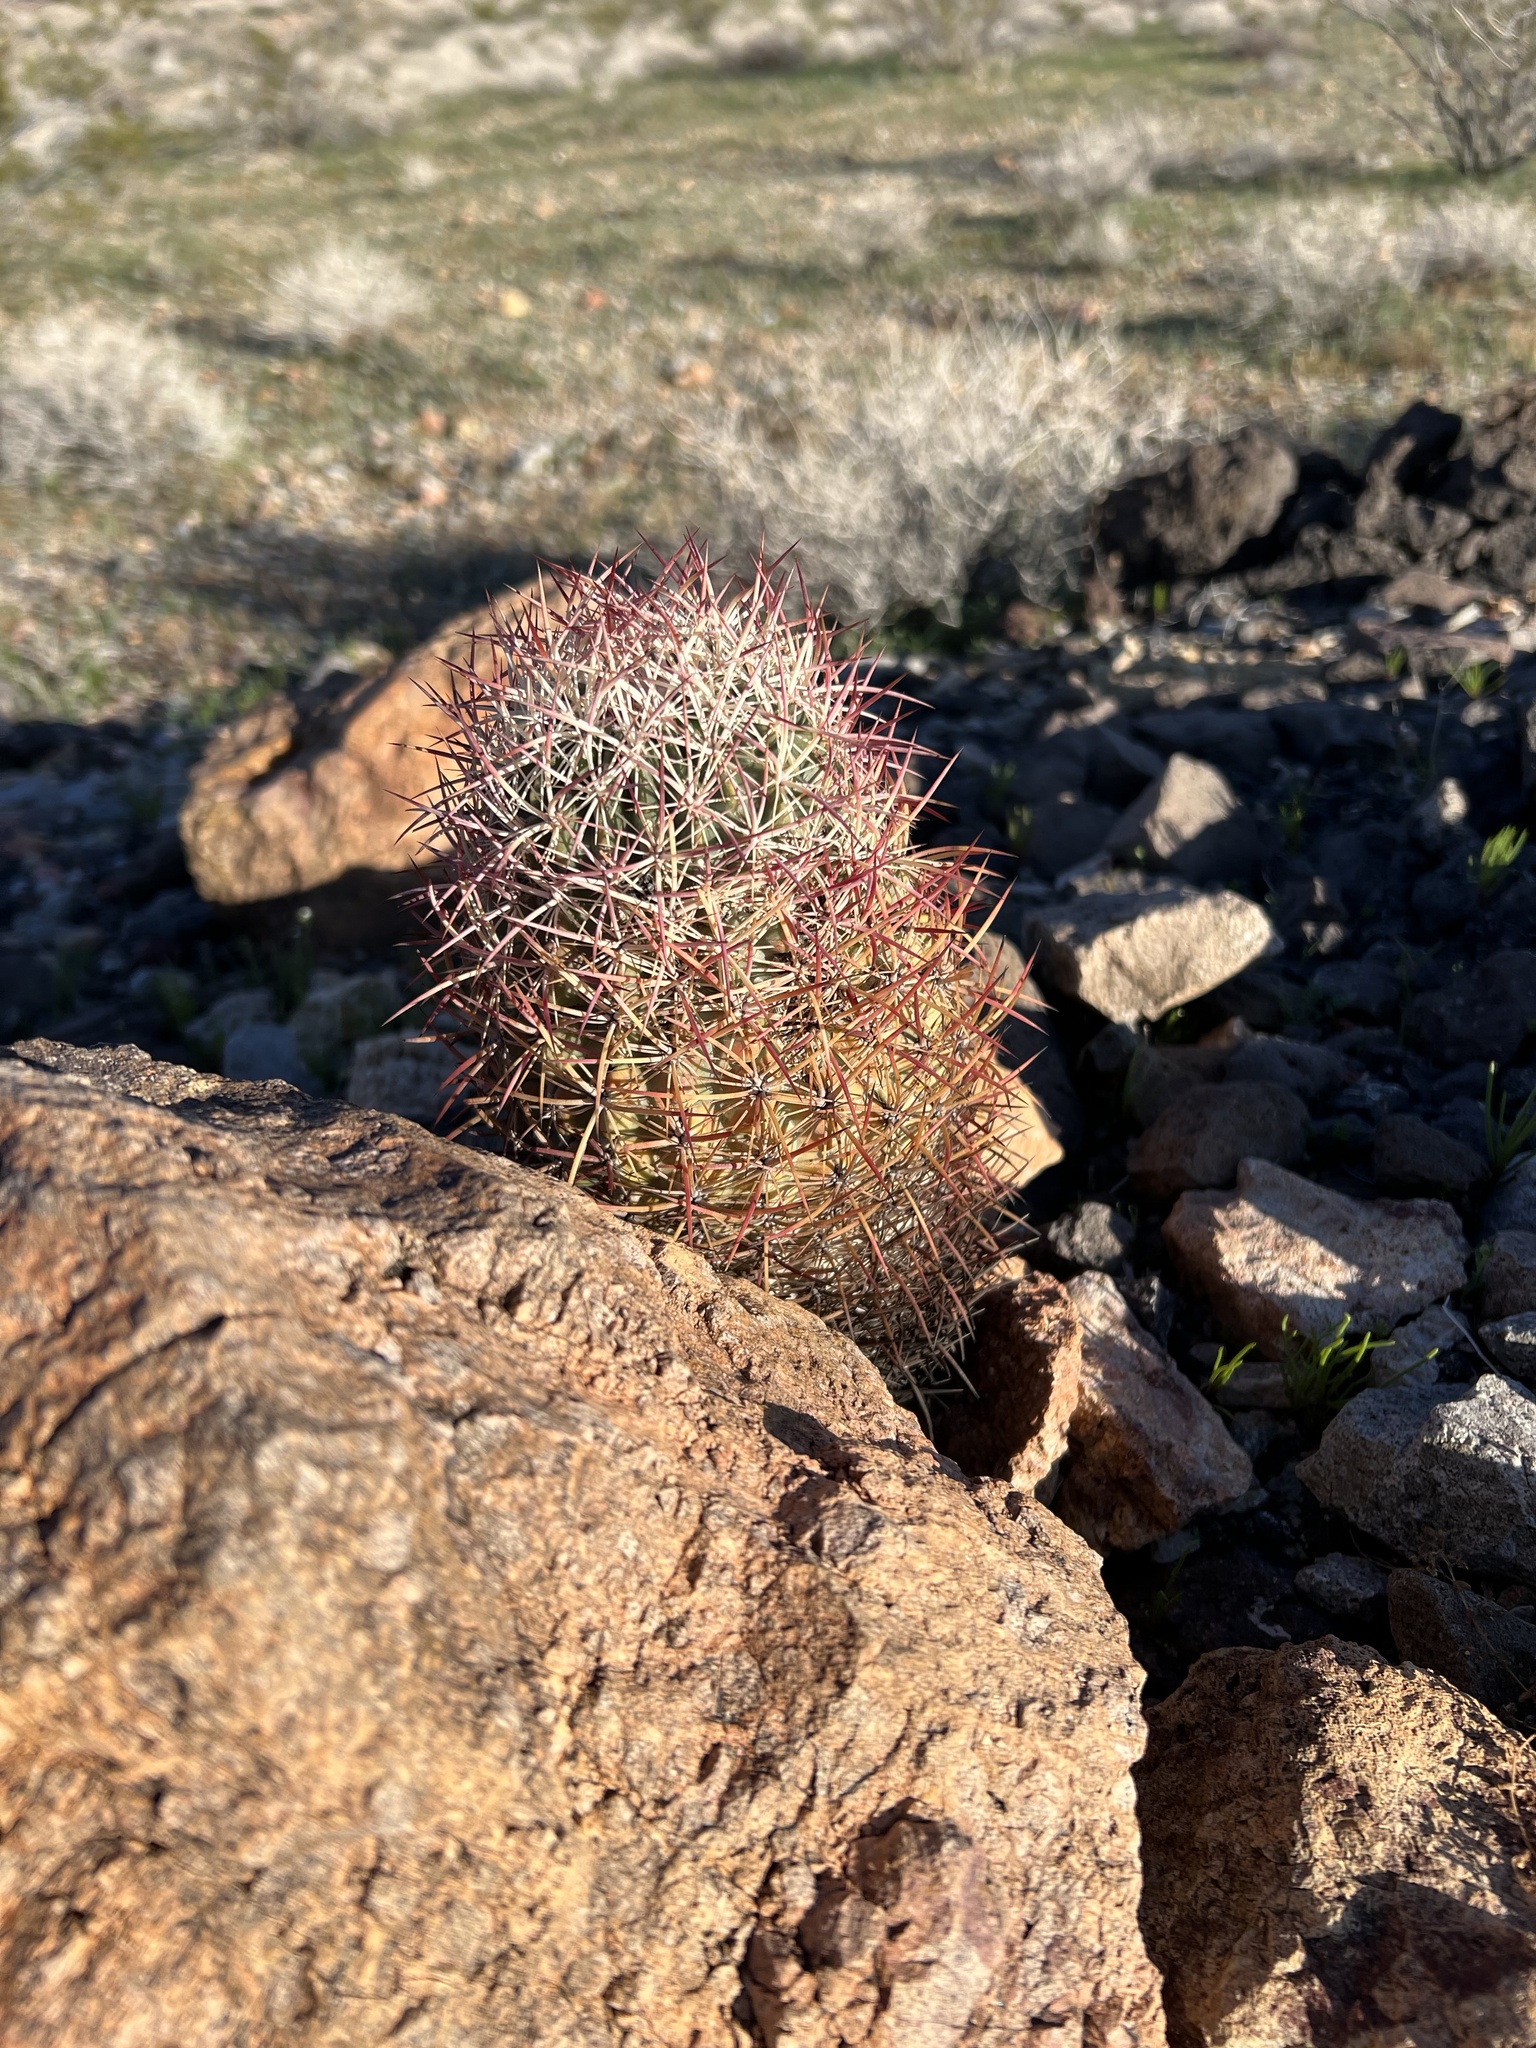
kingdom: Plantae
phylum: Tracheophyta
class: Magnoliopsida
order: Caryophyllales
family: Cactaceae
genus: Sclerocactus
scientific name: Sclerocactus johnsonii
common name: Eight-spine fishhook cactus
